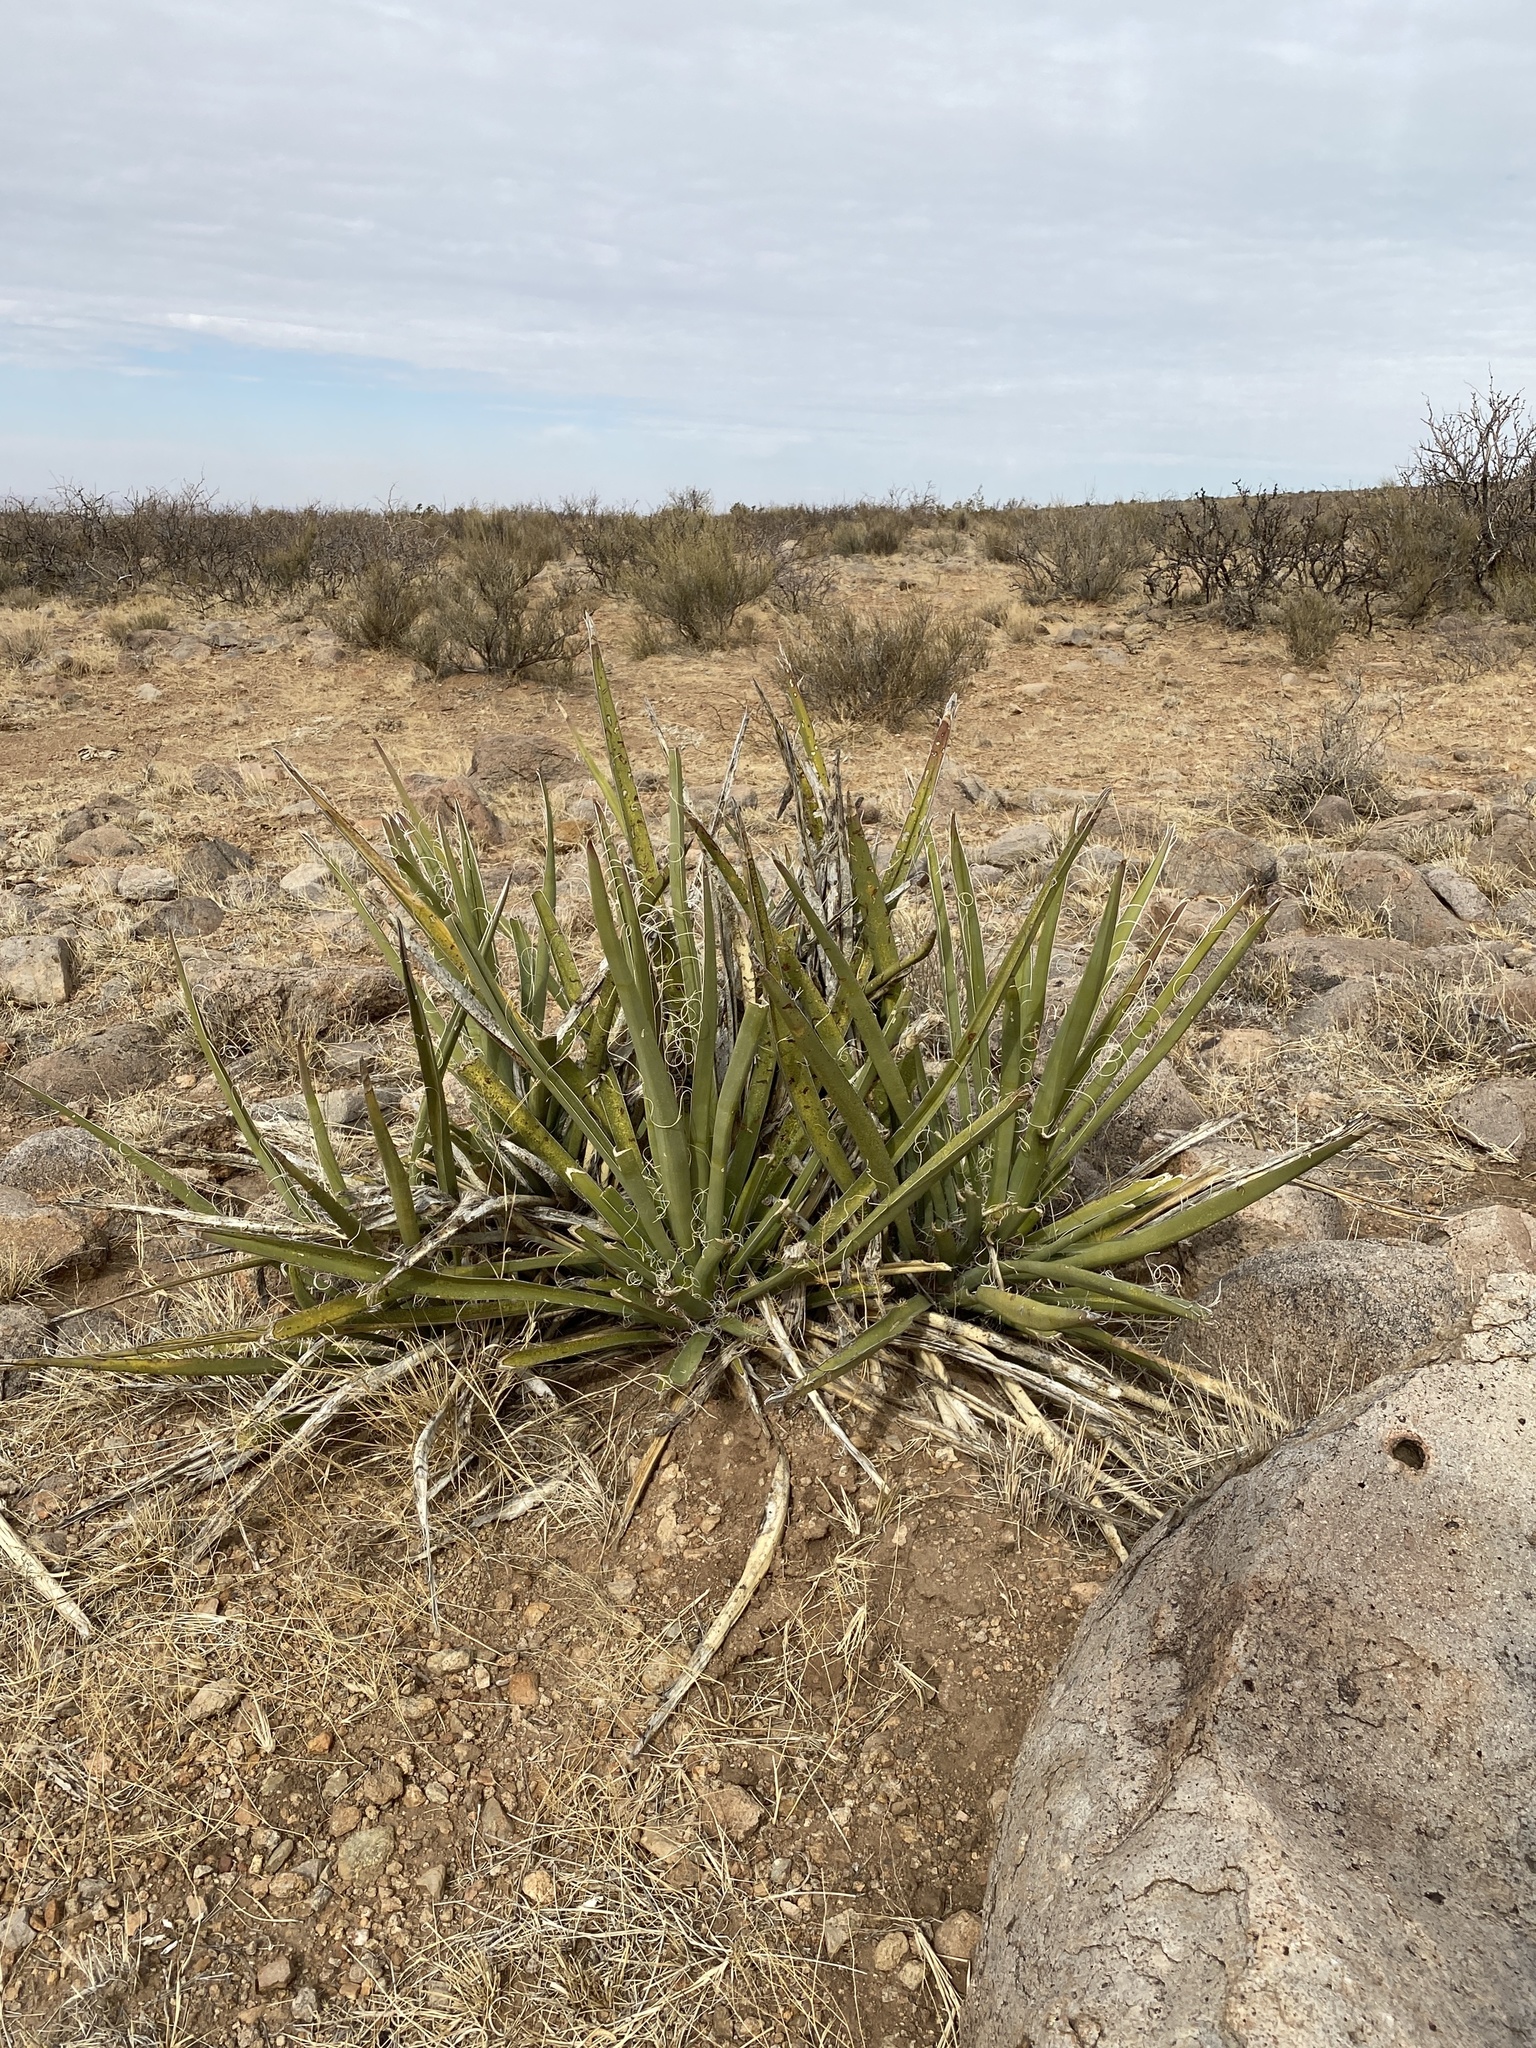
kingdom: Plantae
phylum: Tracheophyta
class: Liliopsida
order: Asparagales
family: Asparagaceae
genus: Yucca
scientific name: Yucca baccata
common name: Banana yucca
